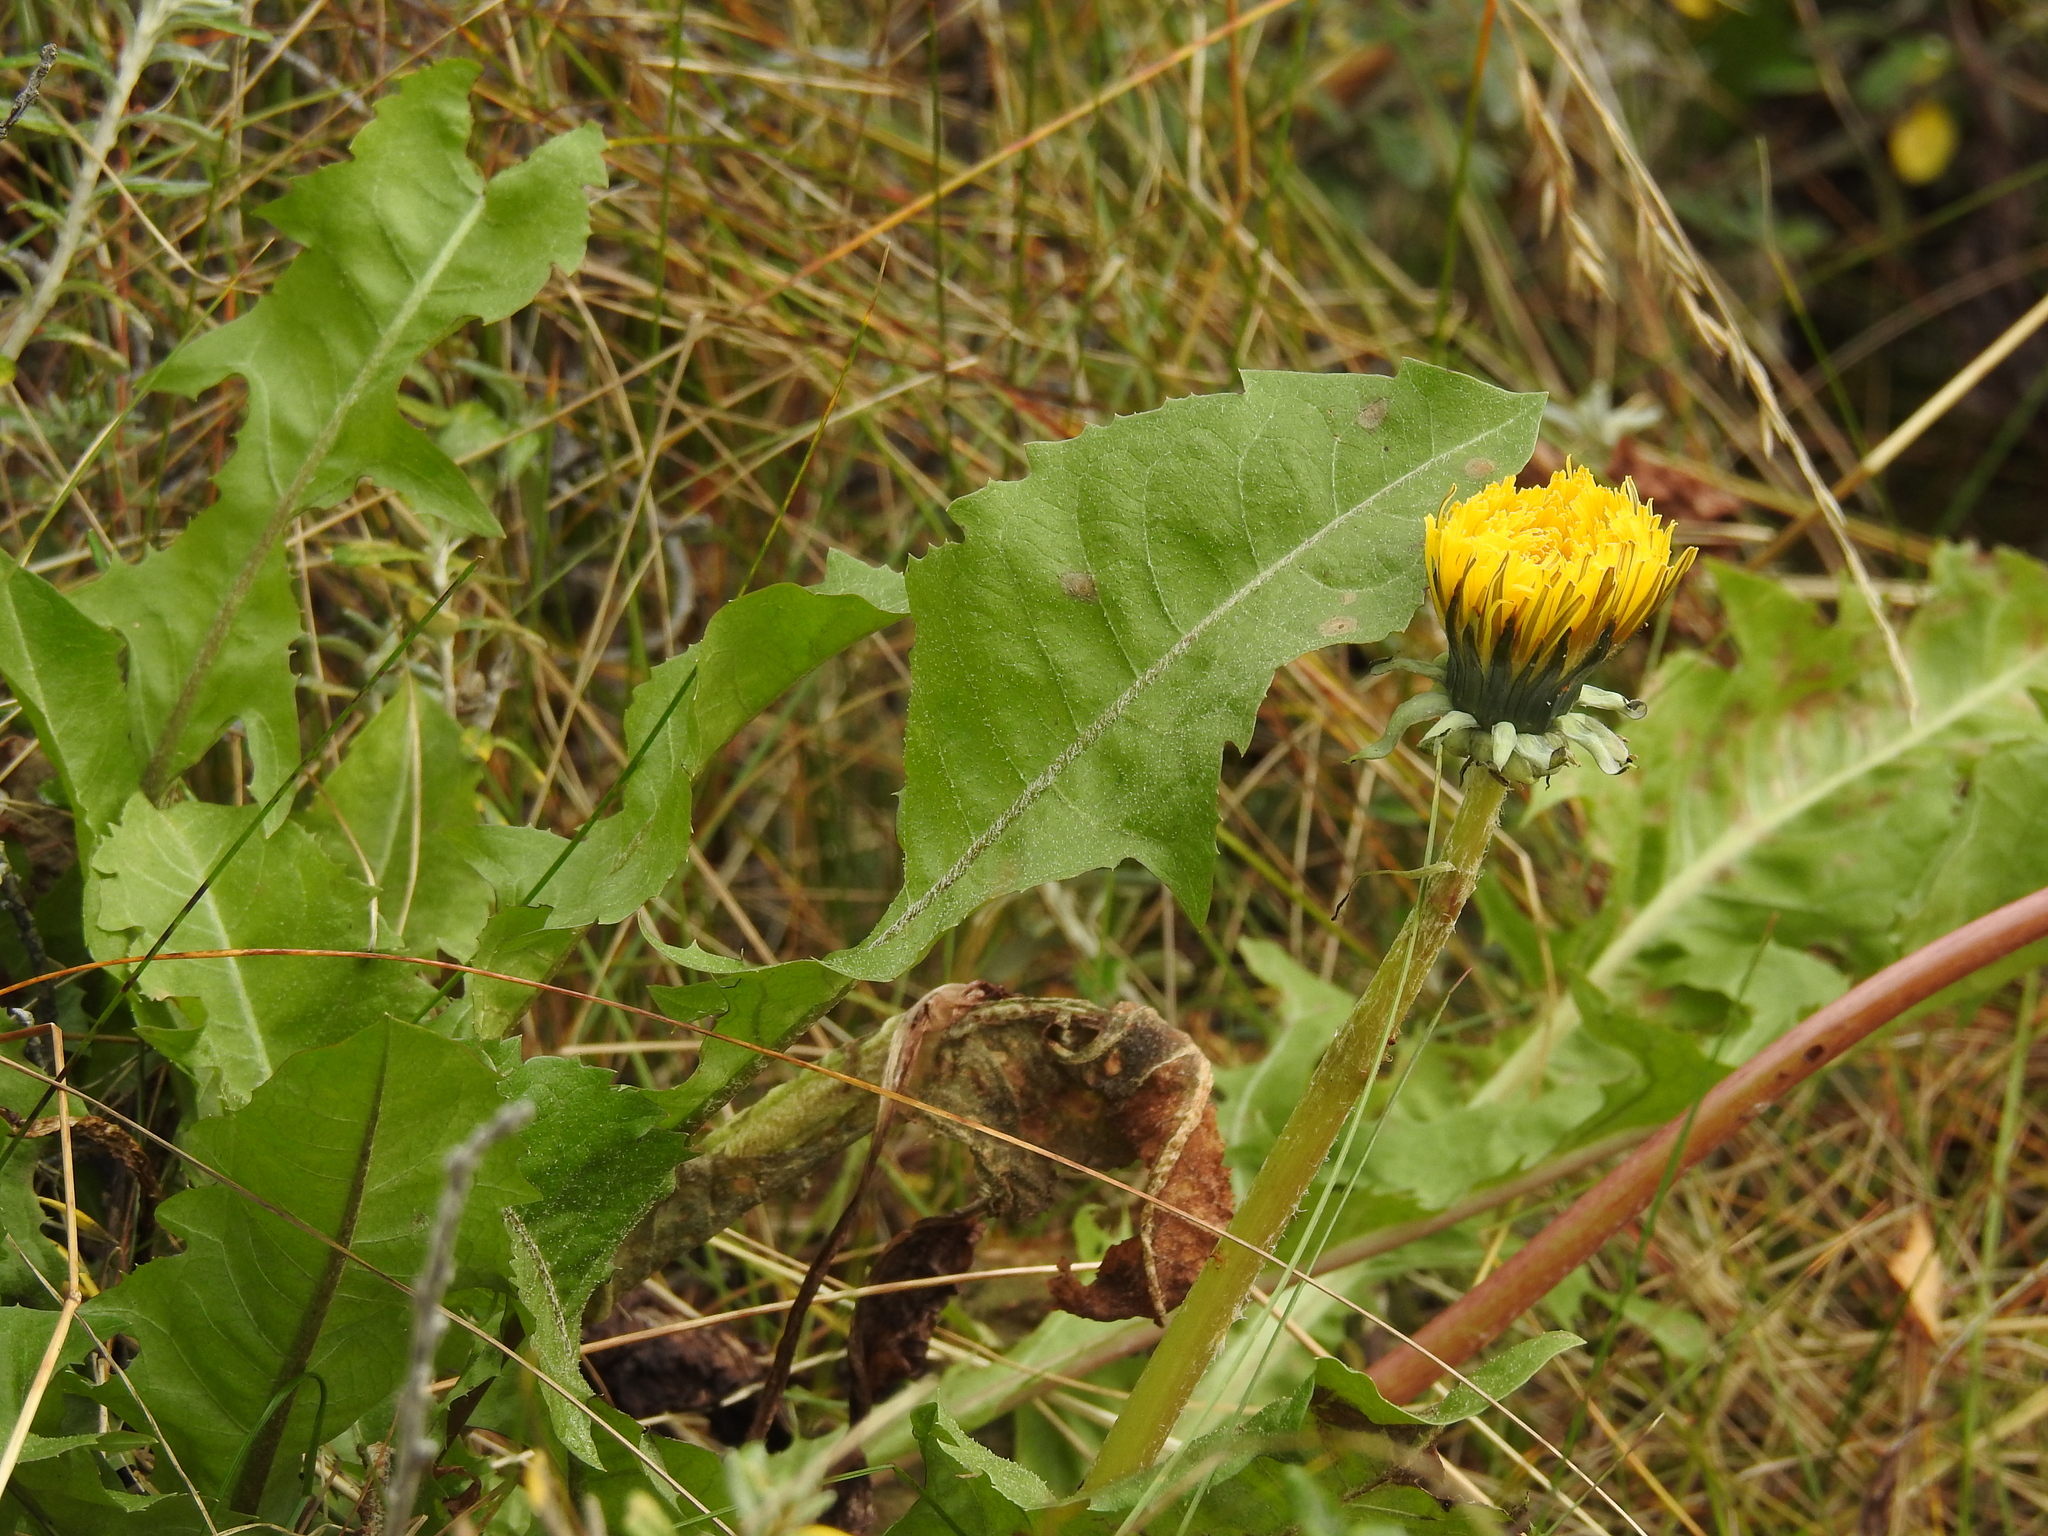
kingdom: Plantae
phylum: Tracheophyta
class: Magnoliopsida
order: Asterales
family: Asteraceae
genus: Taraxacum
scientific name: Taraxacum officinale
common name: Common dandelion
